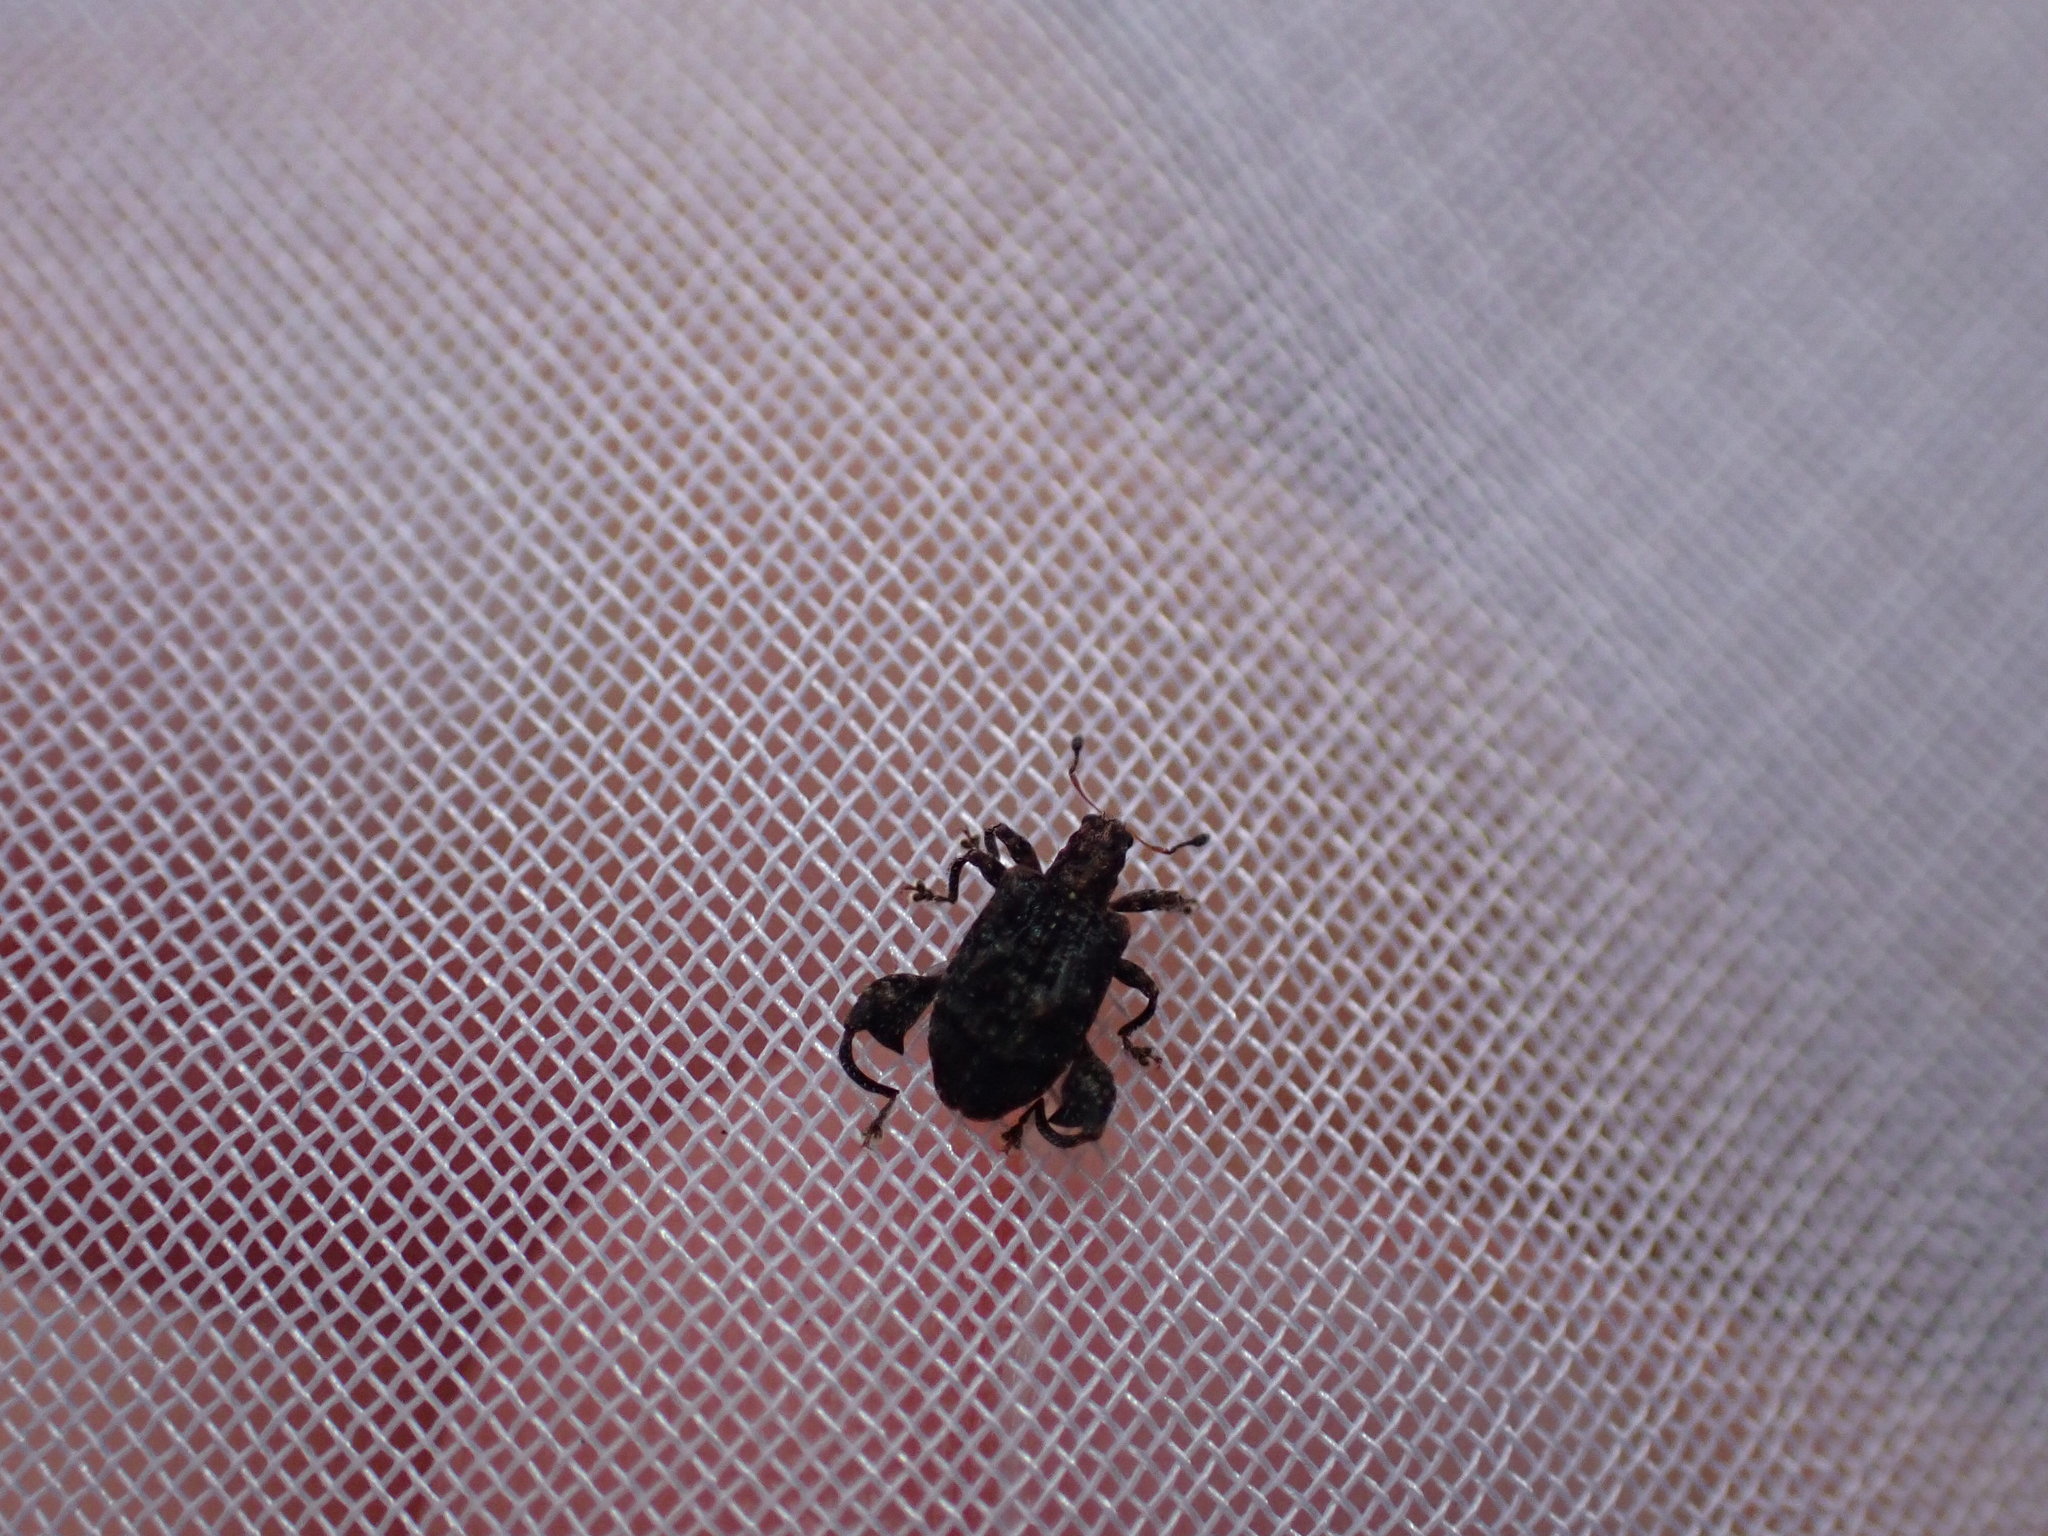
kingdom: Animalia
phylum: Arthropoda
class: Insecta
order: Coleoptera
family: Curculionidae
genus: Pactola
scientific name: Pactola variabilis
